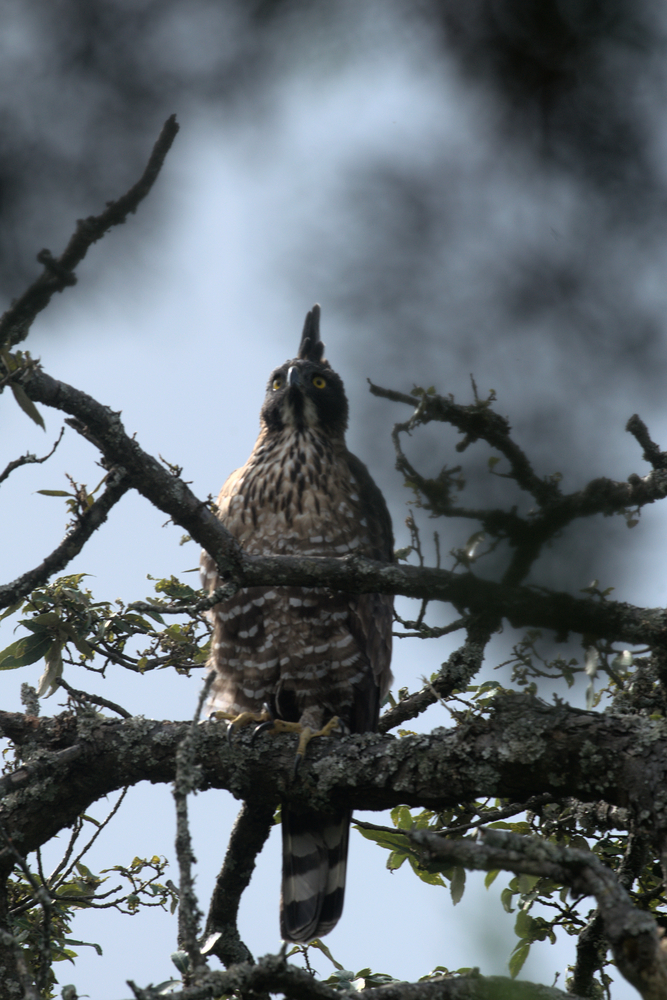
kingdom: Animalia
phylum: Chordata
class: Aves
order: Accipitriformes
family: Accipitridae
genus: Nisaetus
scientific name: Nisaetus nipalensis
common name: Mountain hawk-eagle
